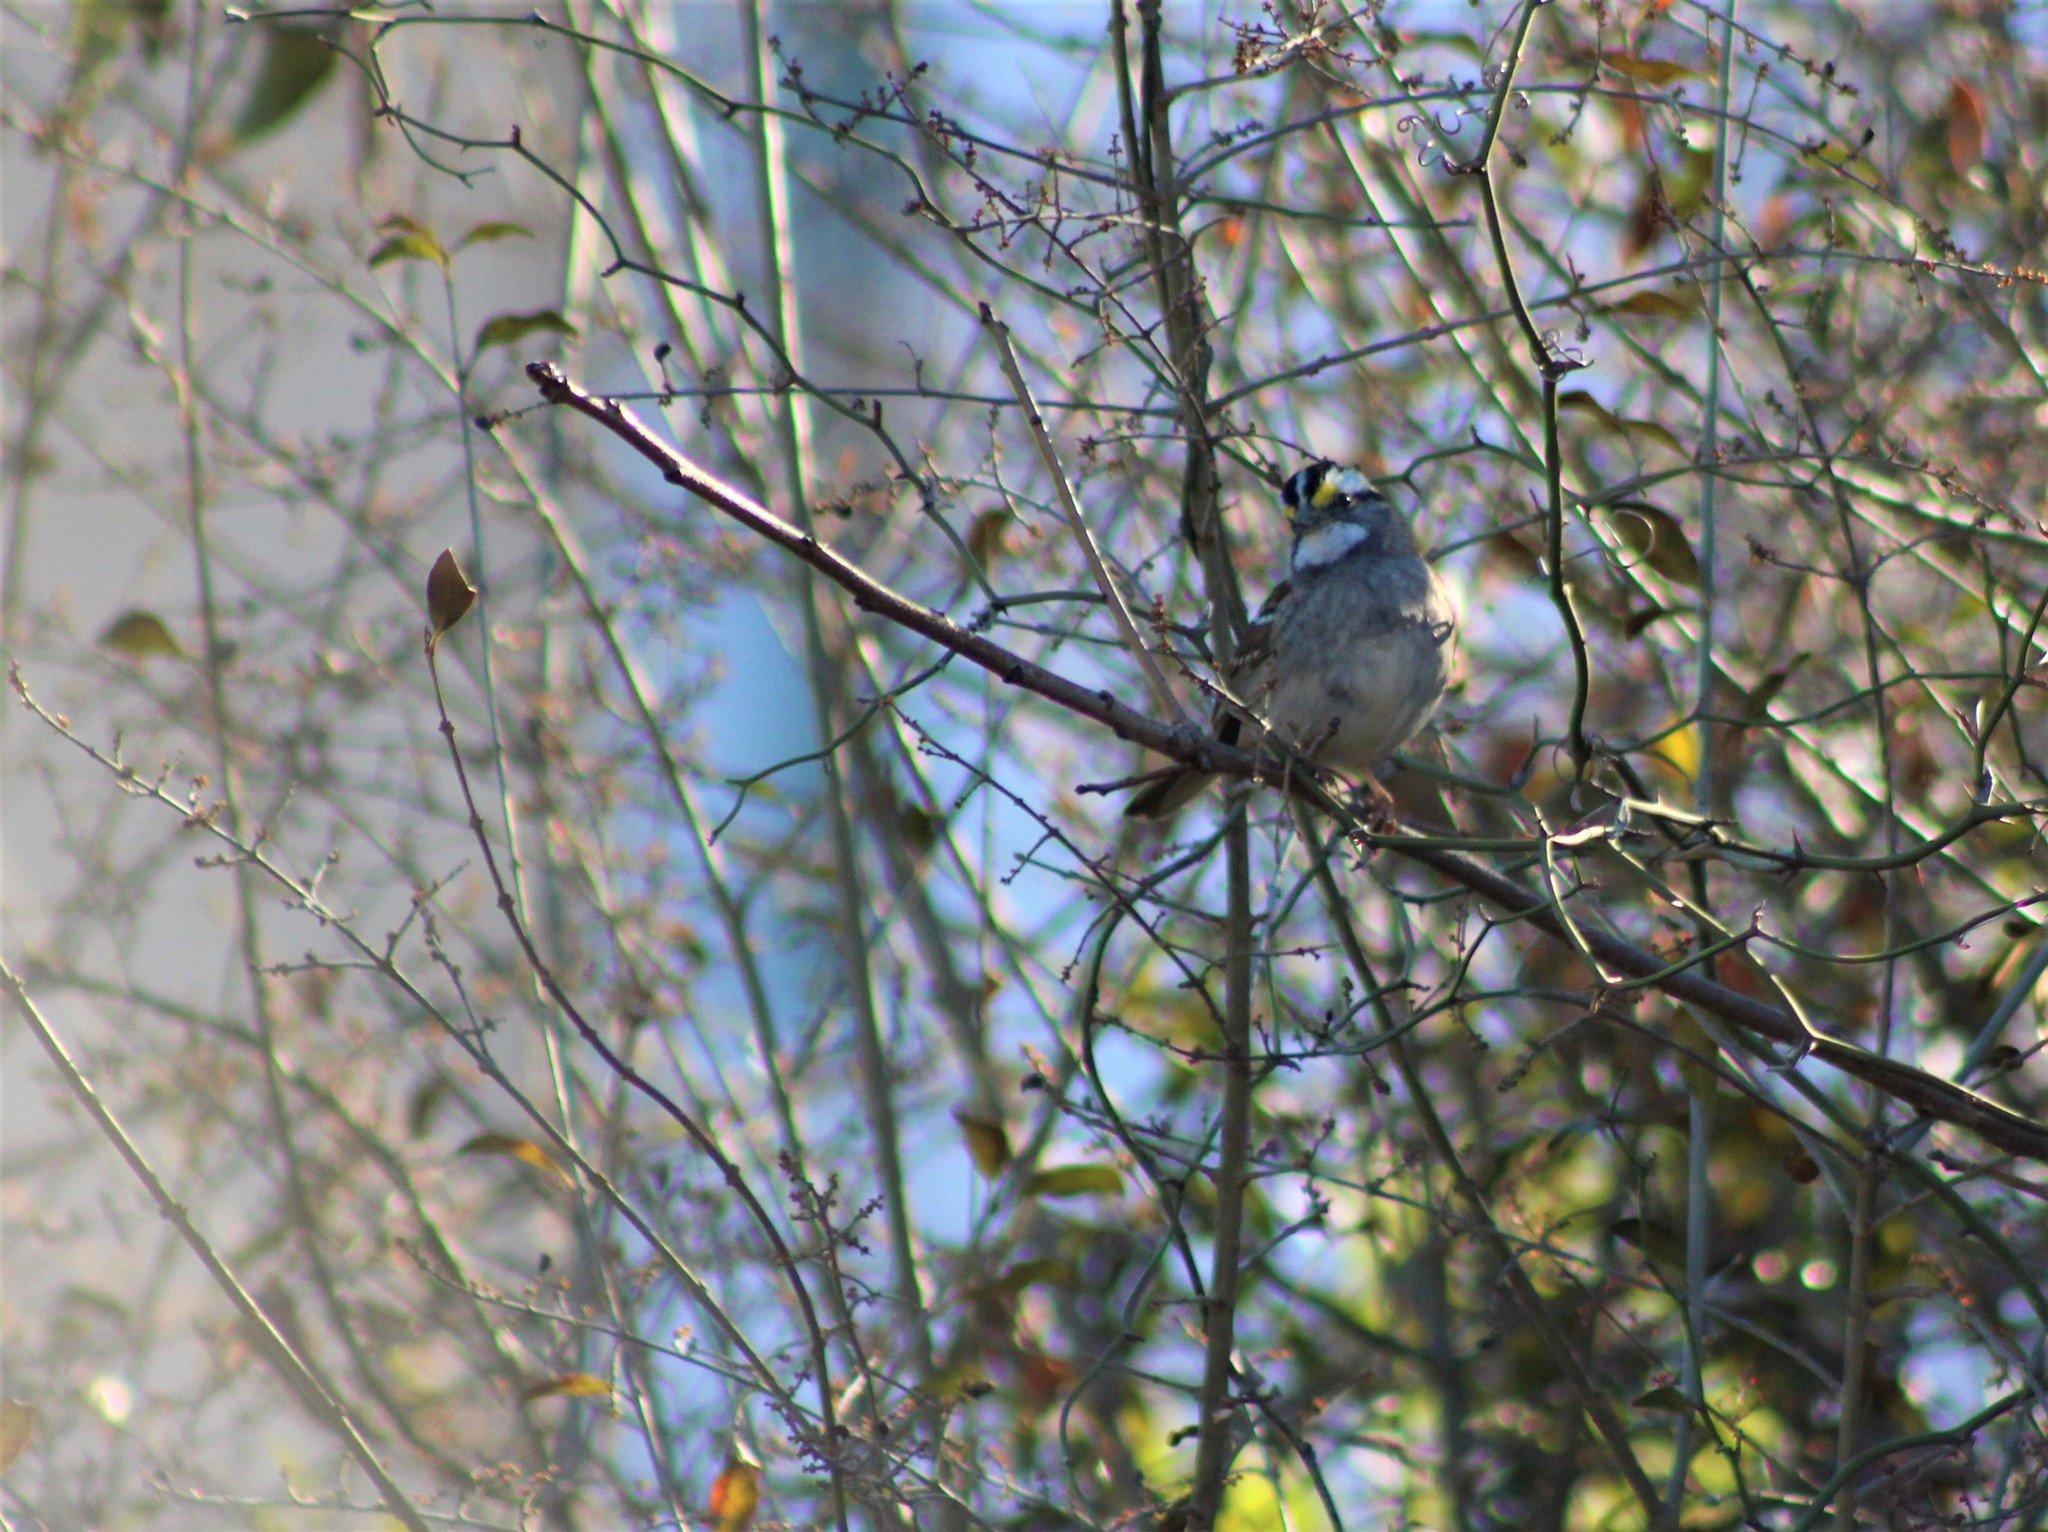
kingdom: Animalia
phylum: Chordata
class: Aves
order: Passeriformes
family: Passerellidae
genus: Zonotrichia
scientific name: Zonotrichia albicollis
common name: White-throated sparrow
